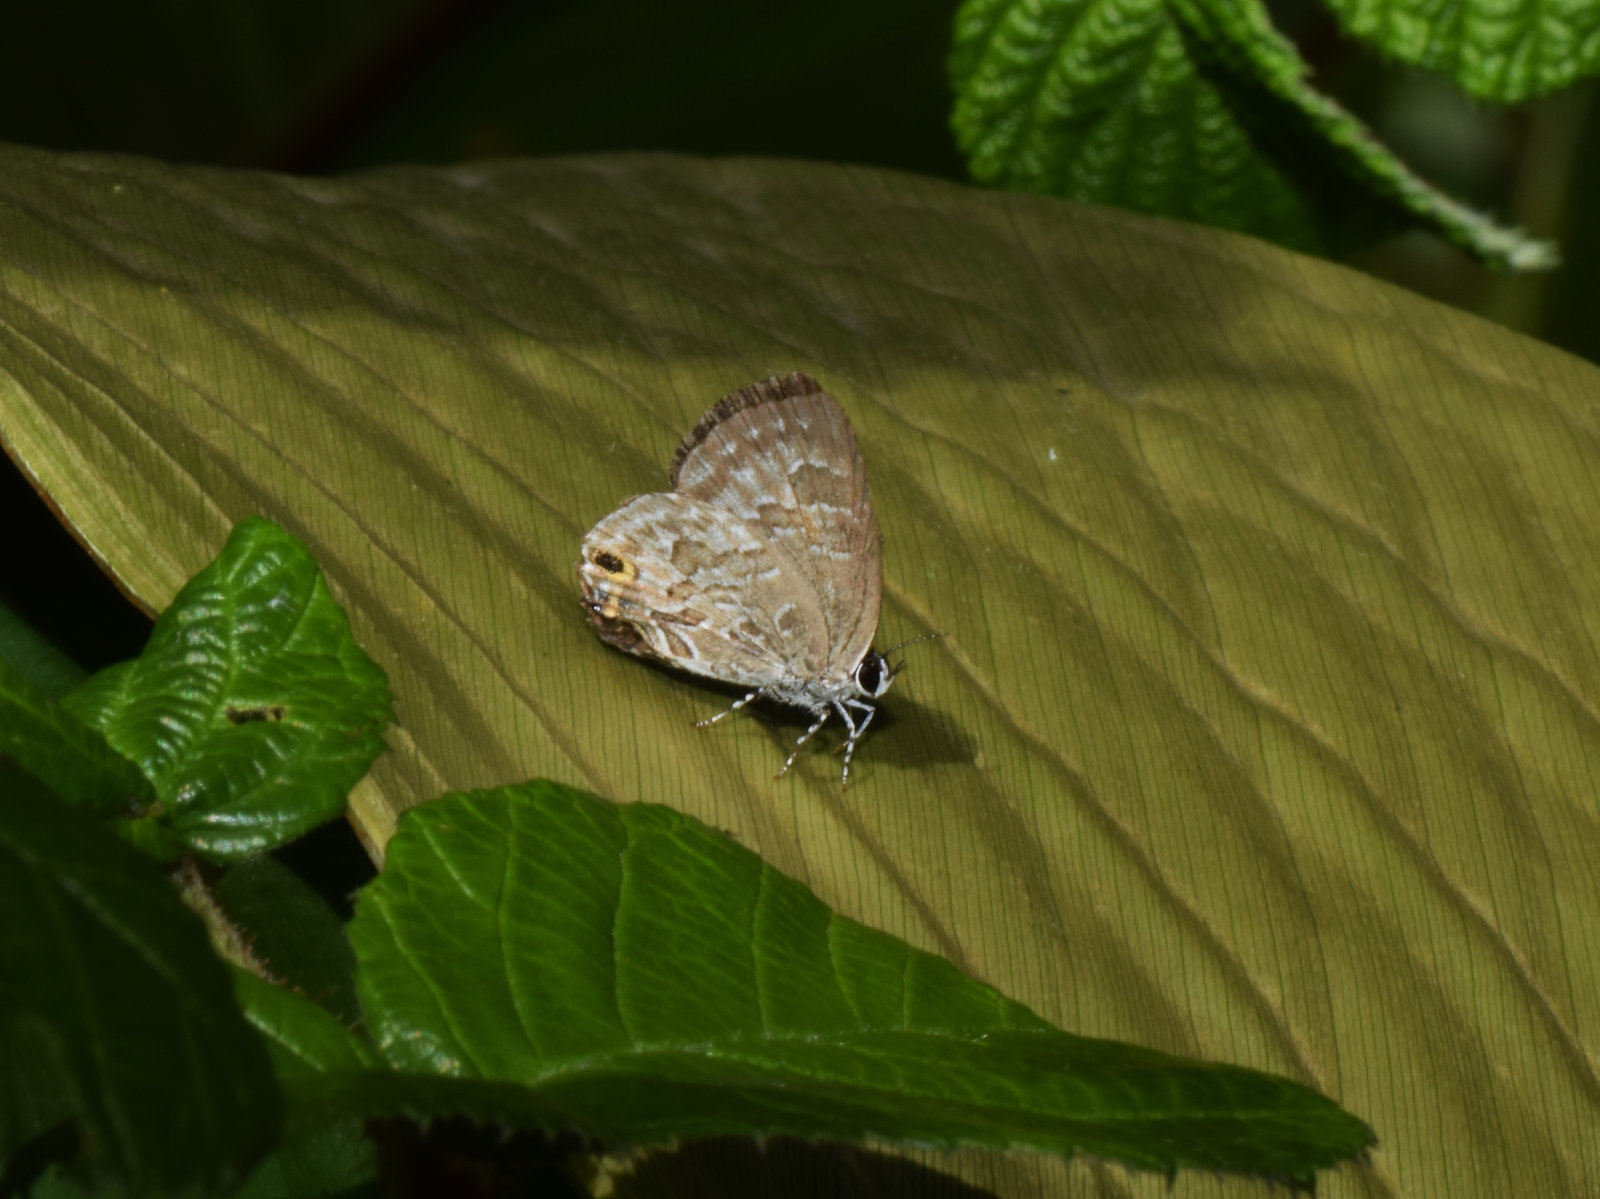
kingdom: Animalia
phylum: Arthropoda
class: Insecta
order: Lepidoptera
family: Lycaenidae
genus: Sinthusa
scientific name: Sinthusa chandrana
